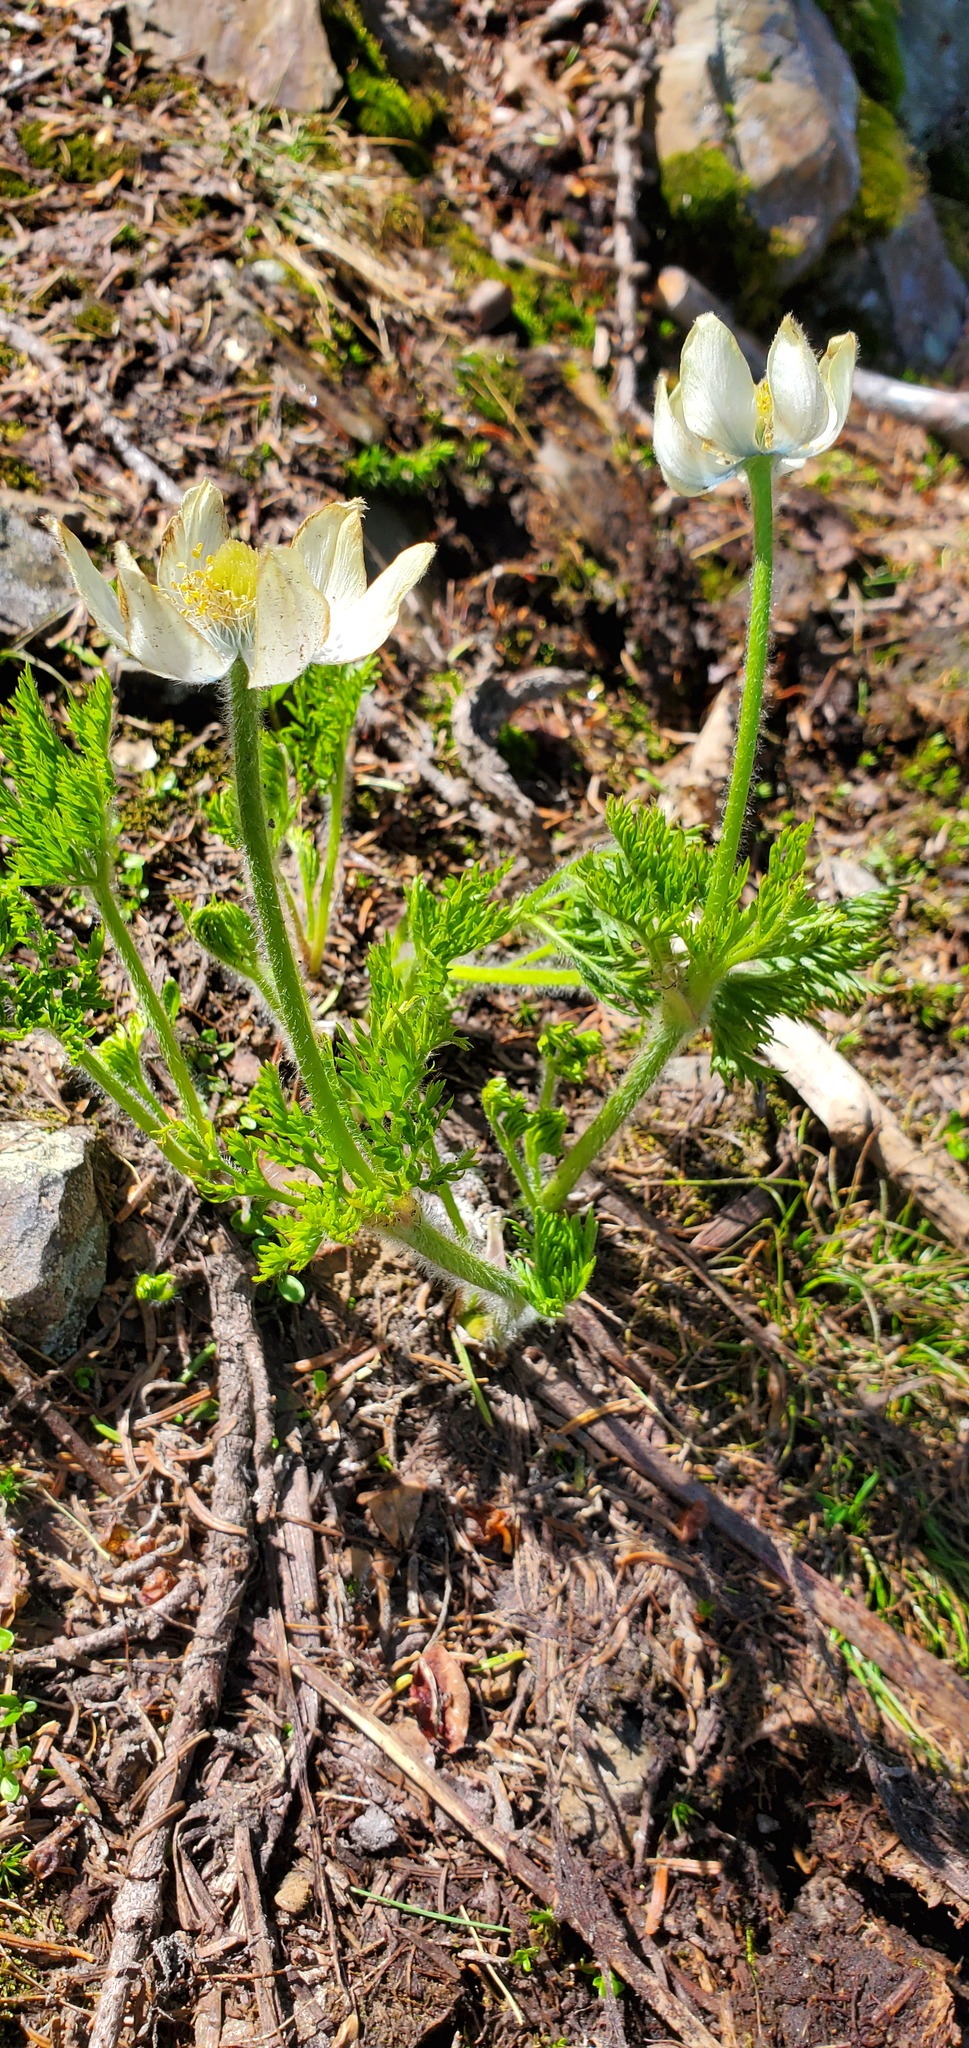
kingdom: Plantae
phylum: Tracheophyta
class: Magnoliopsida
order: Ranunculales
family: Ranunculaceae
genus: Pulsatilla
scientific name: Pulsatilla occidentalis
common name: Mountain pasqueflower
